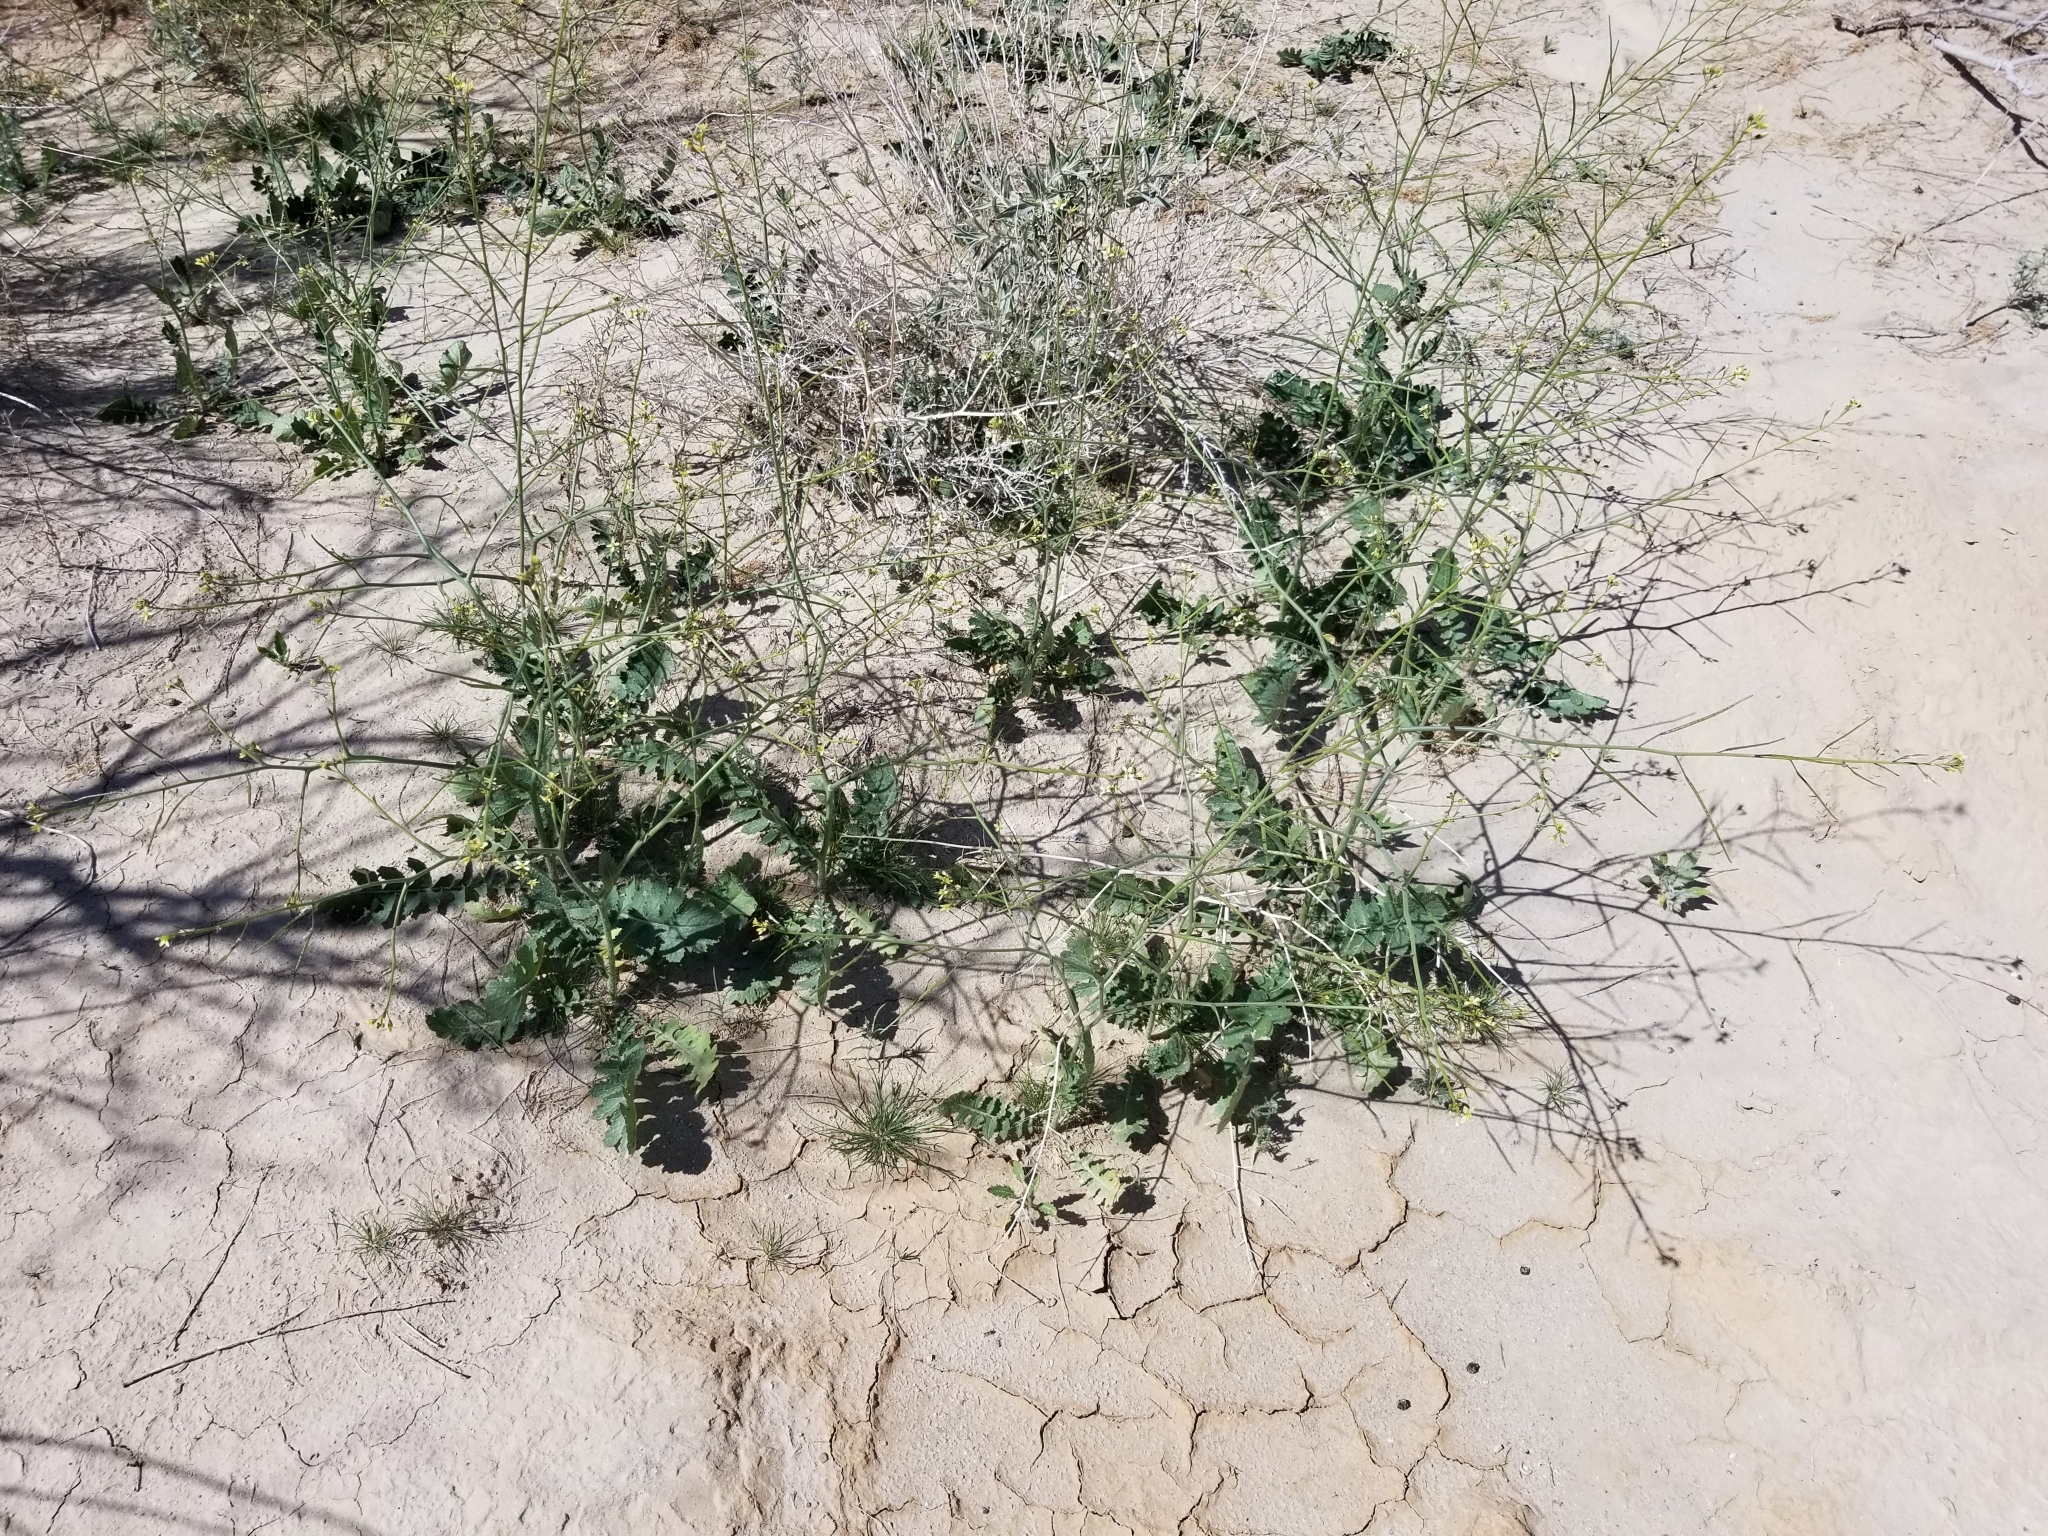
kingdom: Plantae
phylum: Tracheophyta
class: Magnoliopsida
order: Brassicales
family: Brassicaceae
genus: Brassica
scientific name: Brassica tournefortii
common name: Pale cabbage
